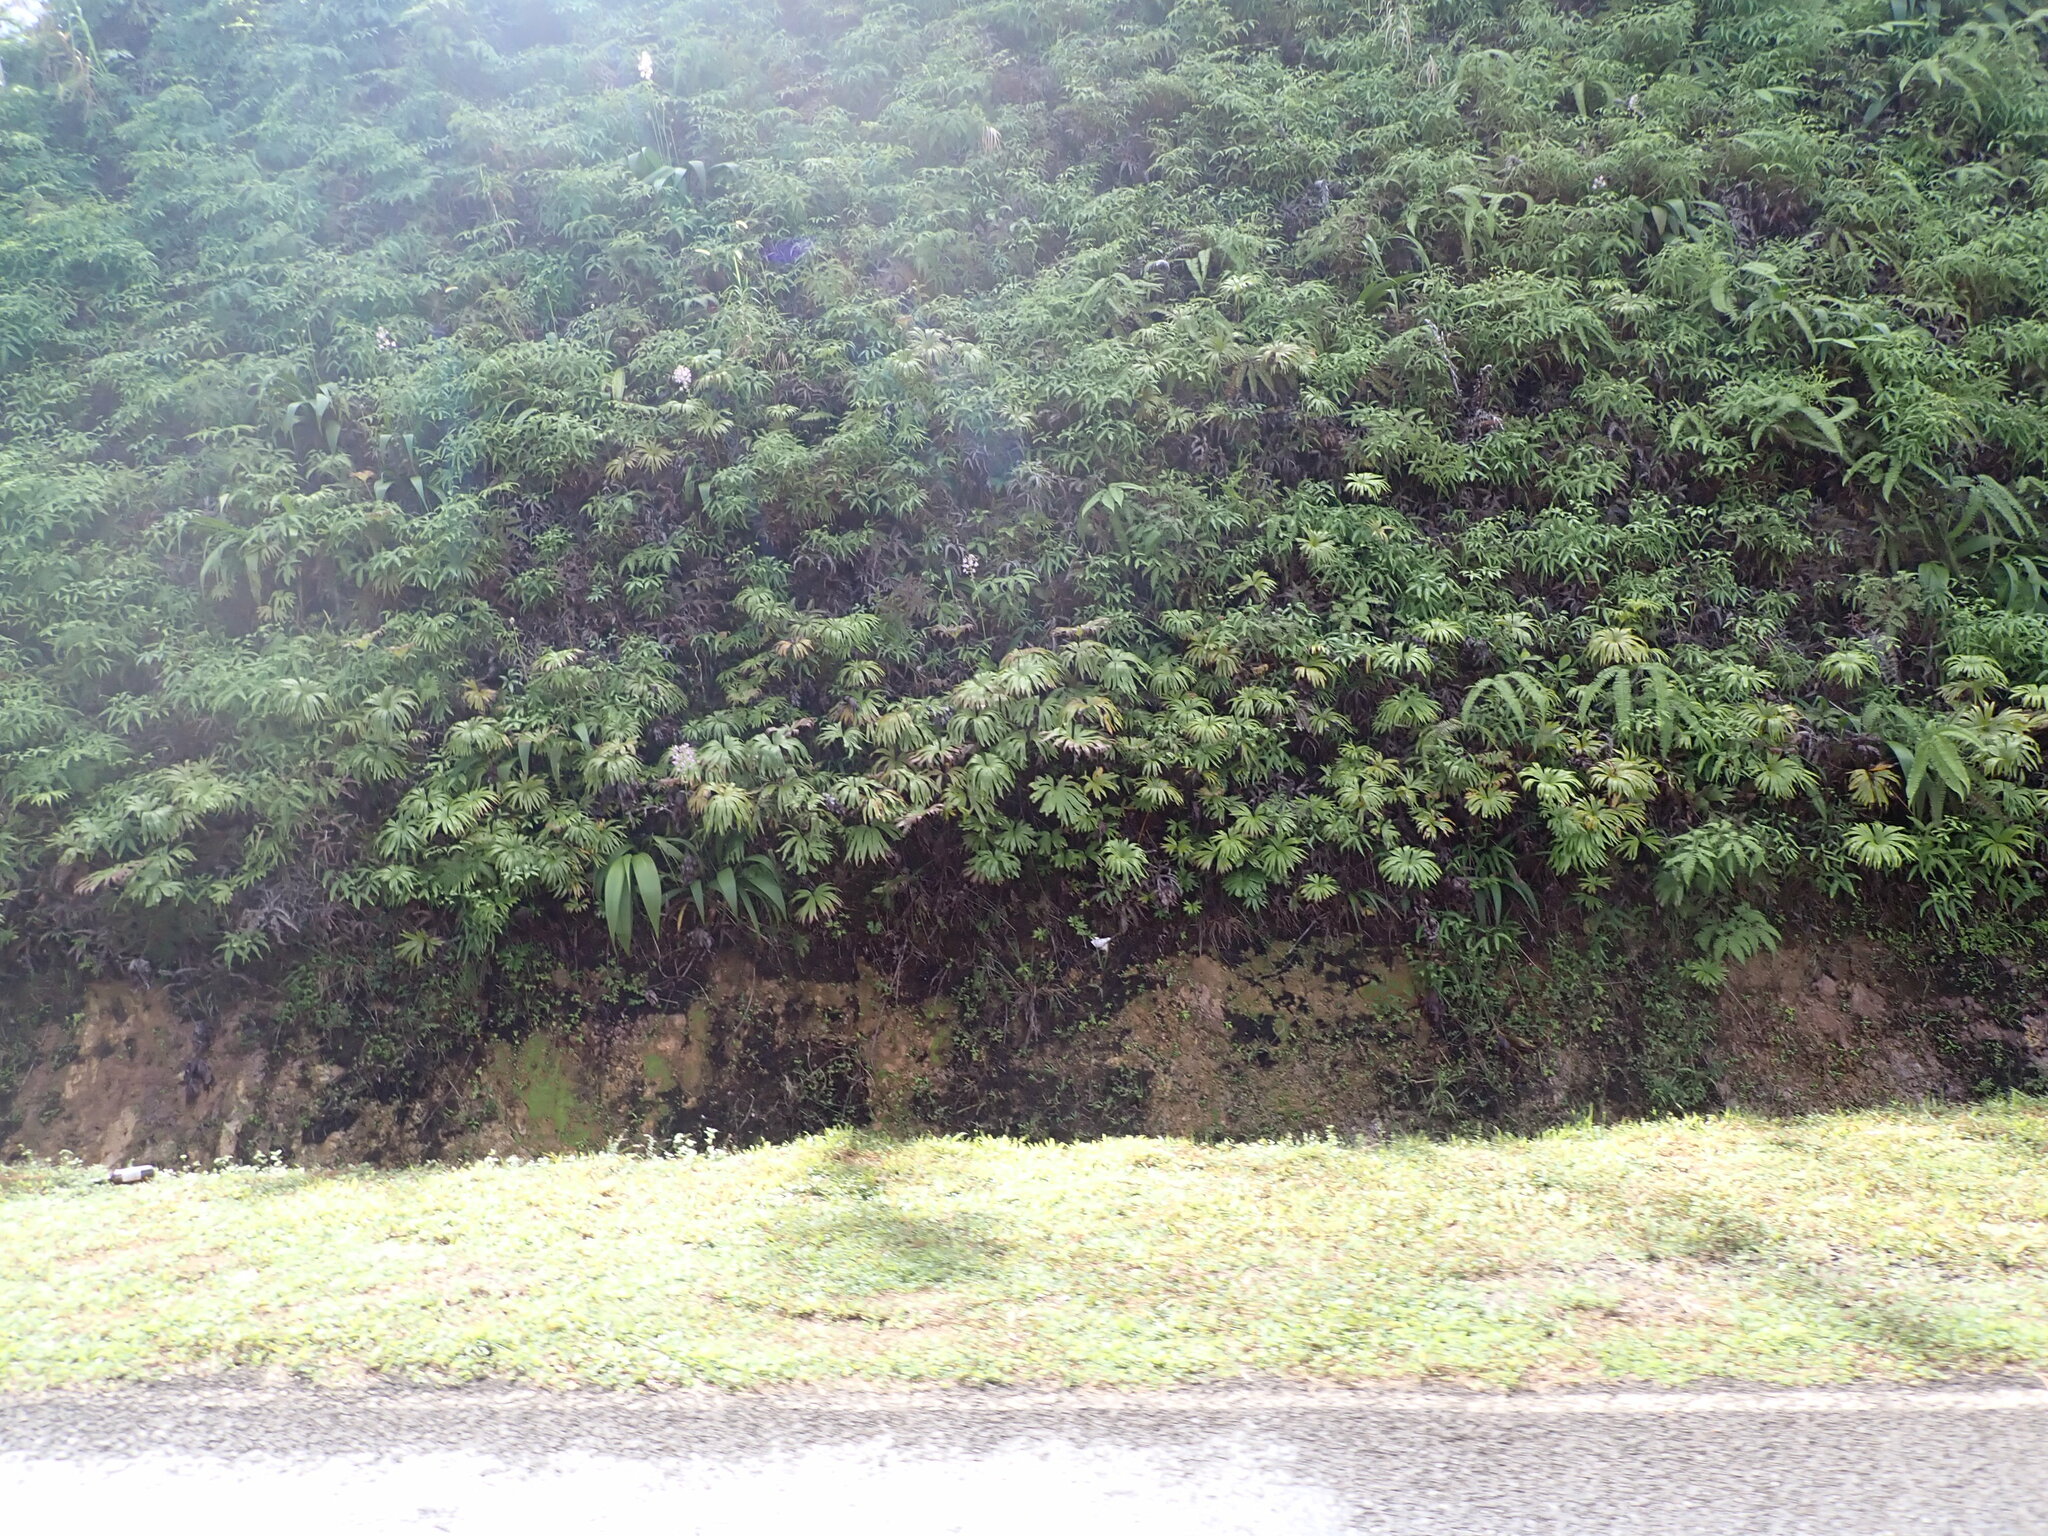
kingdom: Plantae
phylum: Tracheophyta
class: Polypodiopsida
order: Gleicheniales
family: Dipteridaceae
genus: Dipteris
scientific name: Dipteris conjugata
